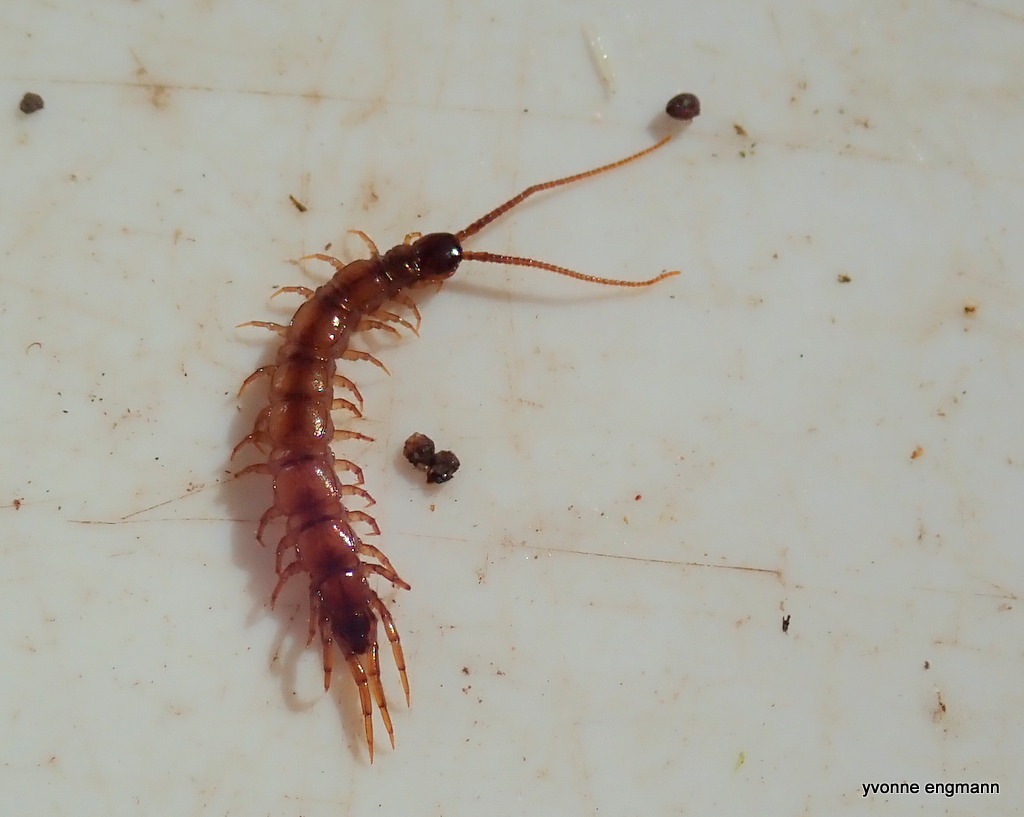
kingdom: Animalia
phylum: Arthropoda
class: Chilopoda
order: Lithobiomorpha
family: Lithobiidae
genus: Lithobius
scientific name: Lithobius forficatus
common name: Centipede
